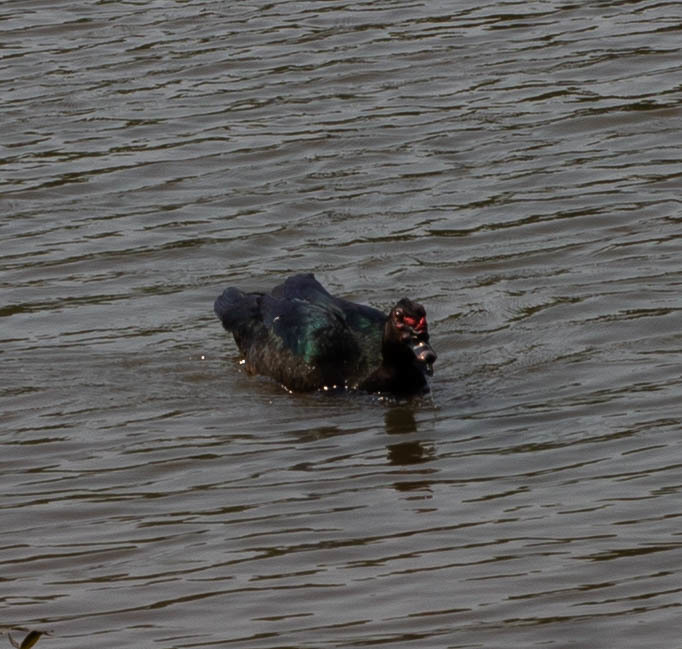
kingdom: Animalia
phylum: Chordata
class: Aves
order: Anseriformes
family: Anatidae
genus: Cairina
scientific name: Cairina moschata
